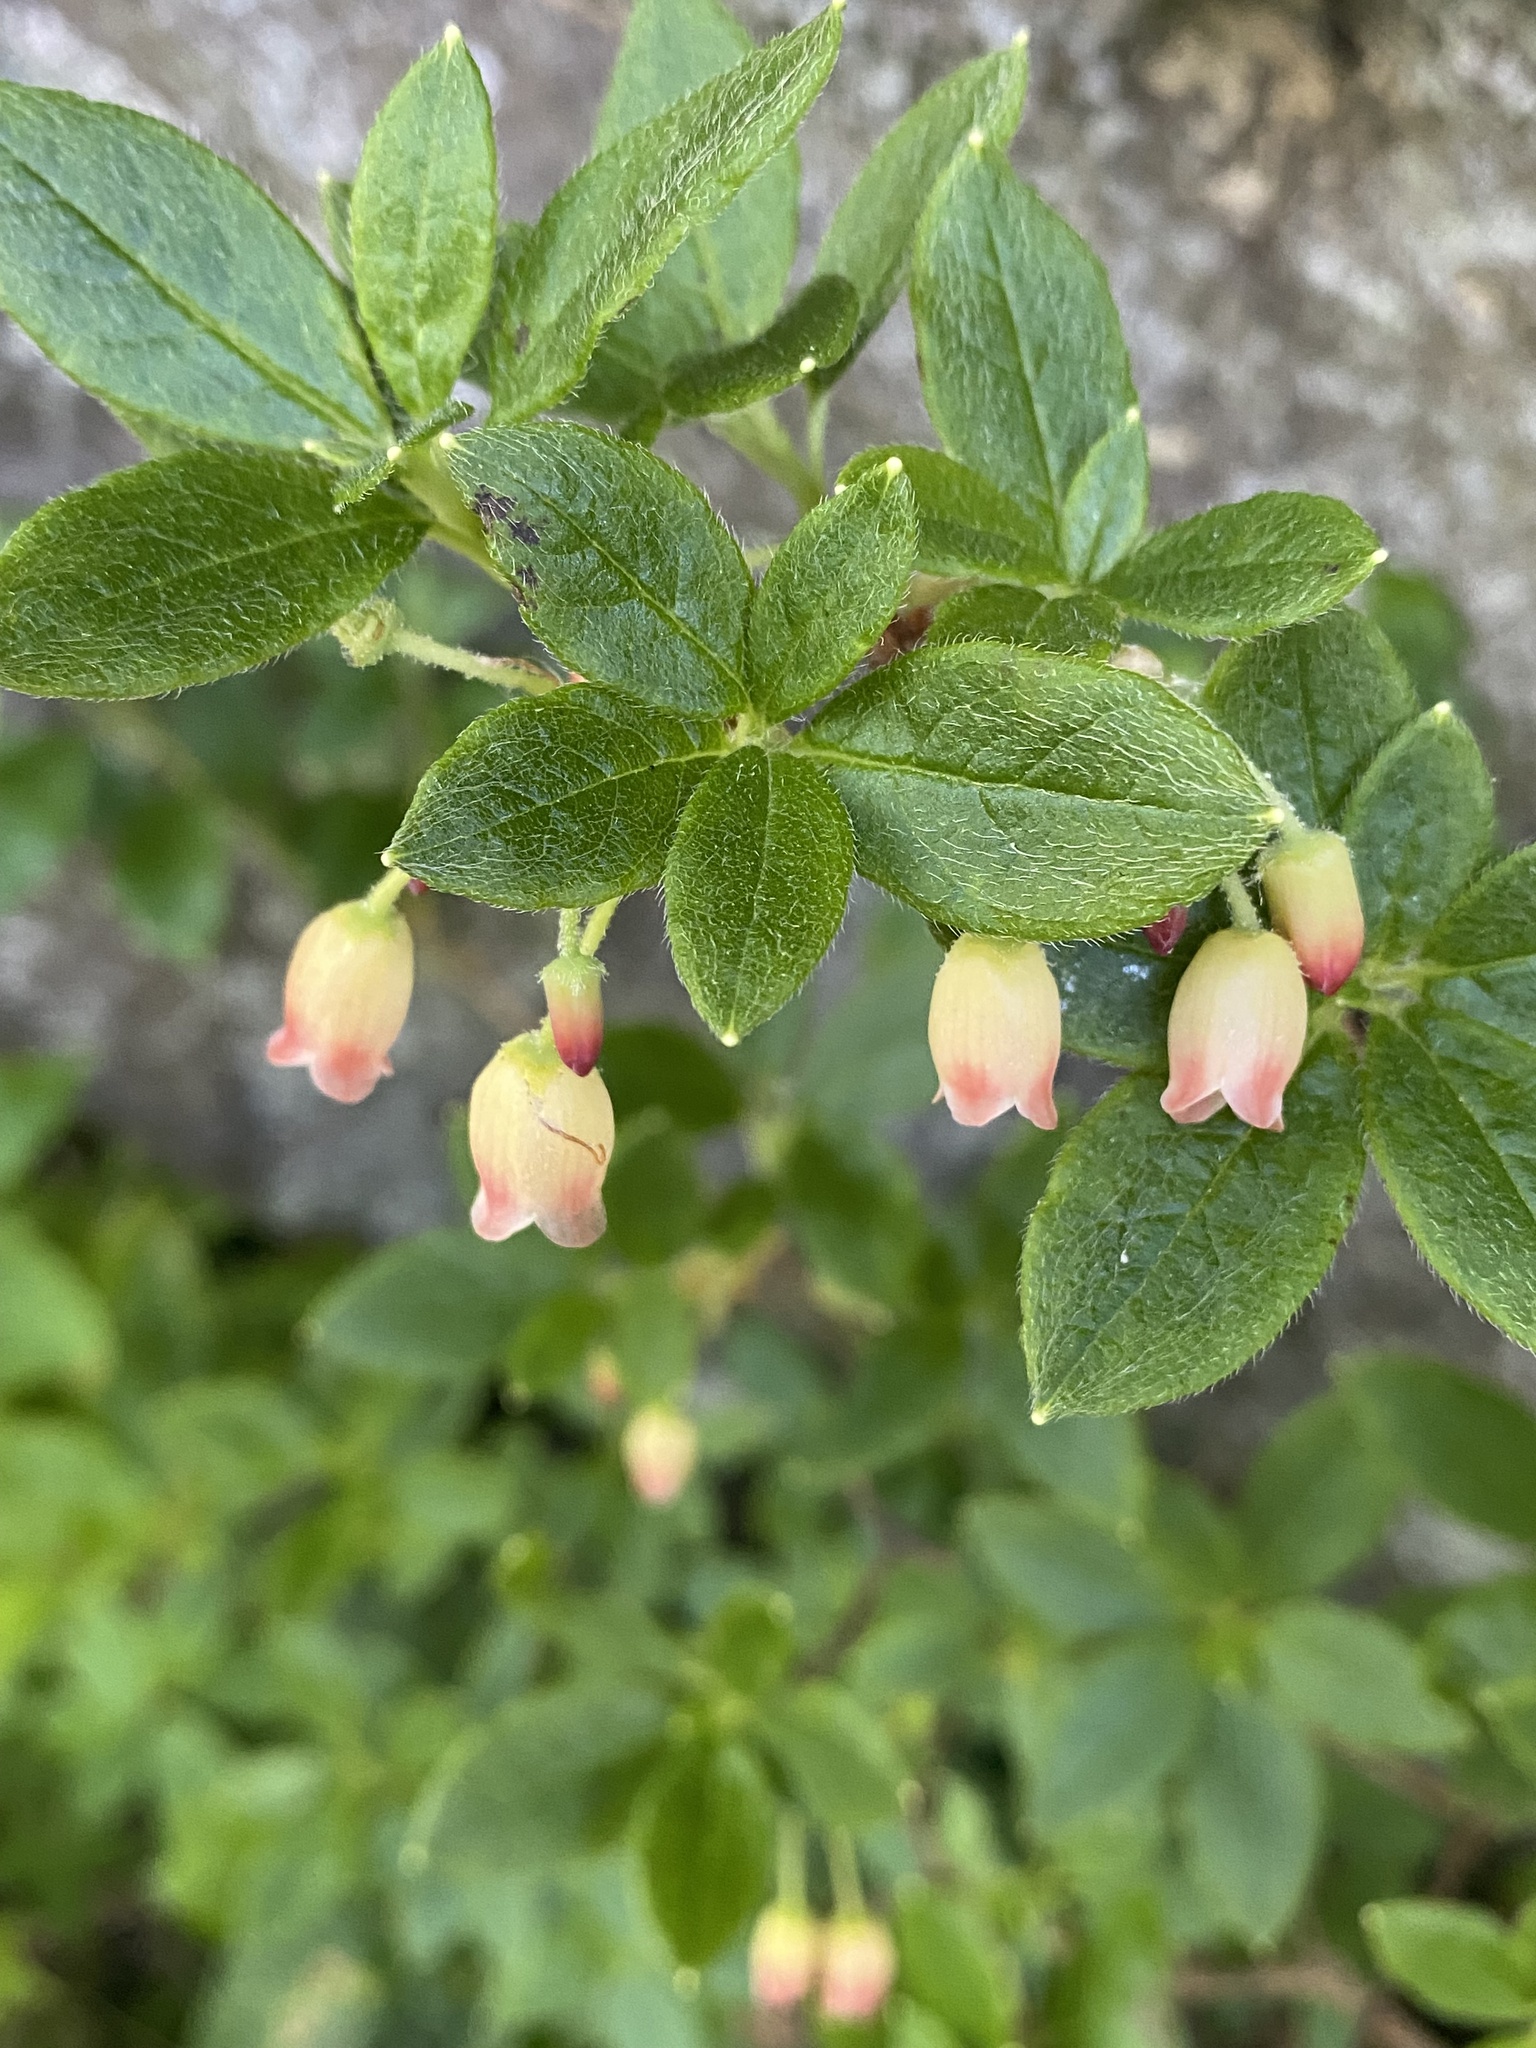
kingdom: Plantae
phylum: Tracheophyta
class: Magnoliopsida
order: Ericales
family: Ericaceae
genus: Rhododendron
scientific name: Rhododendron pilosum
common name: Hairy minniebush
